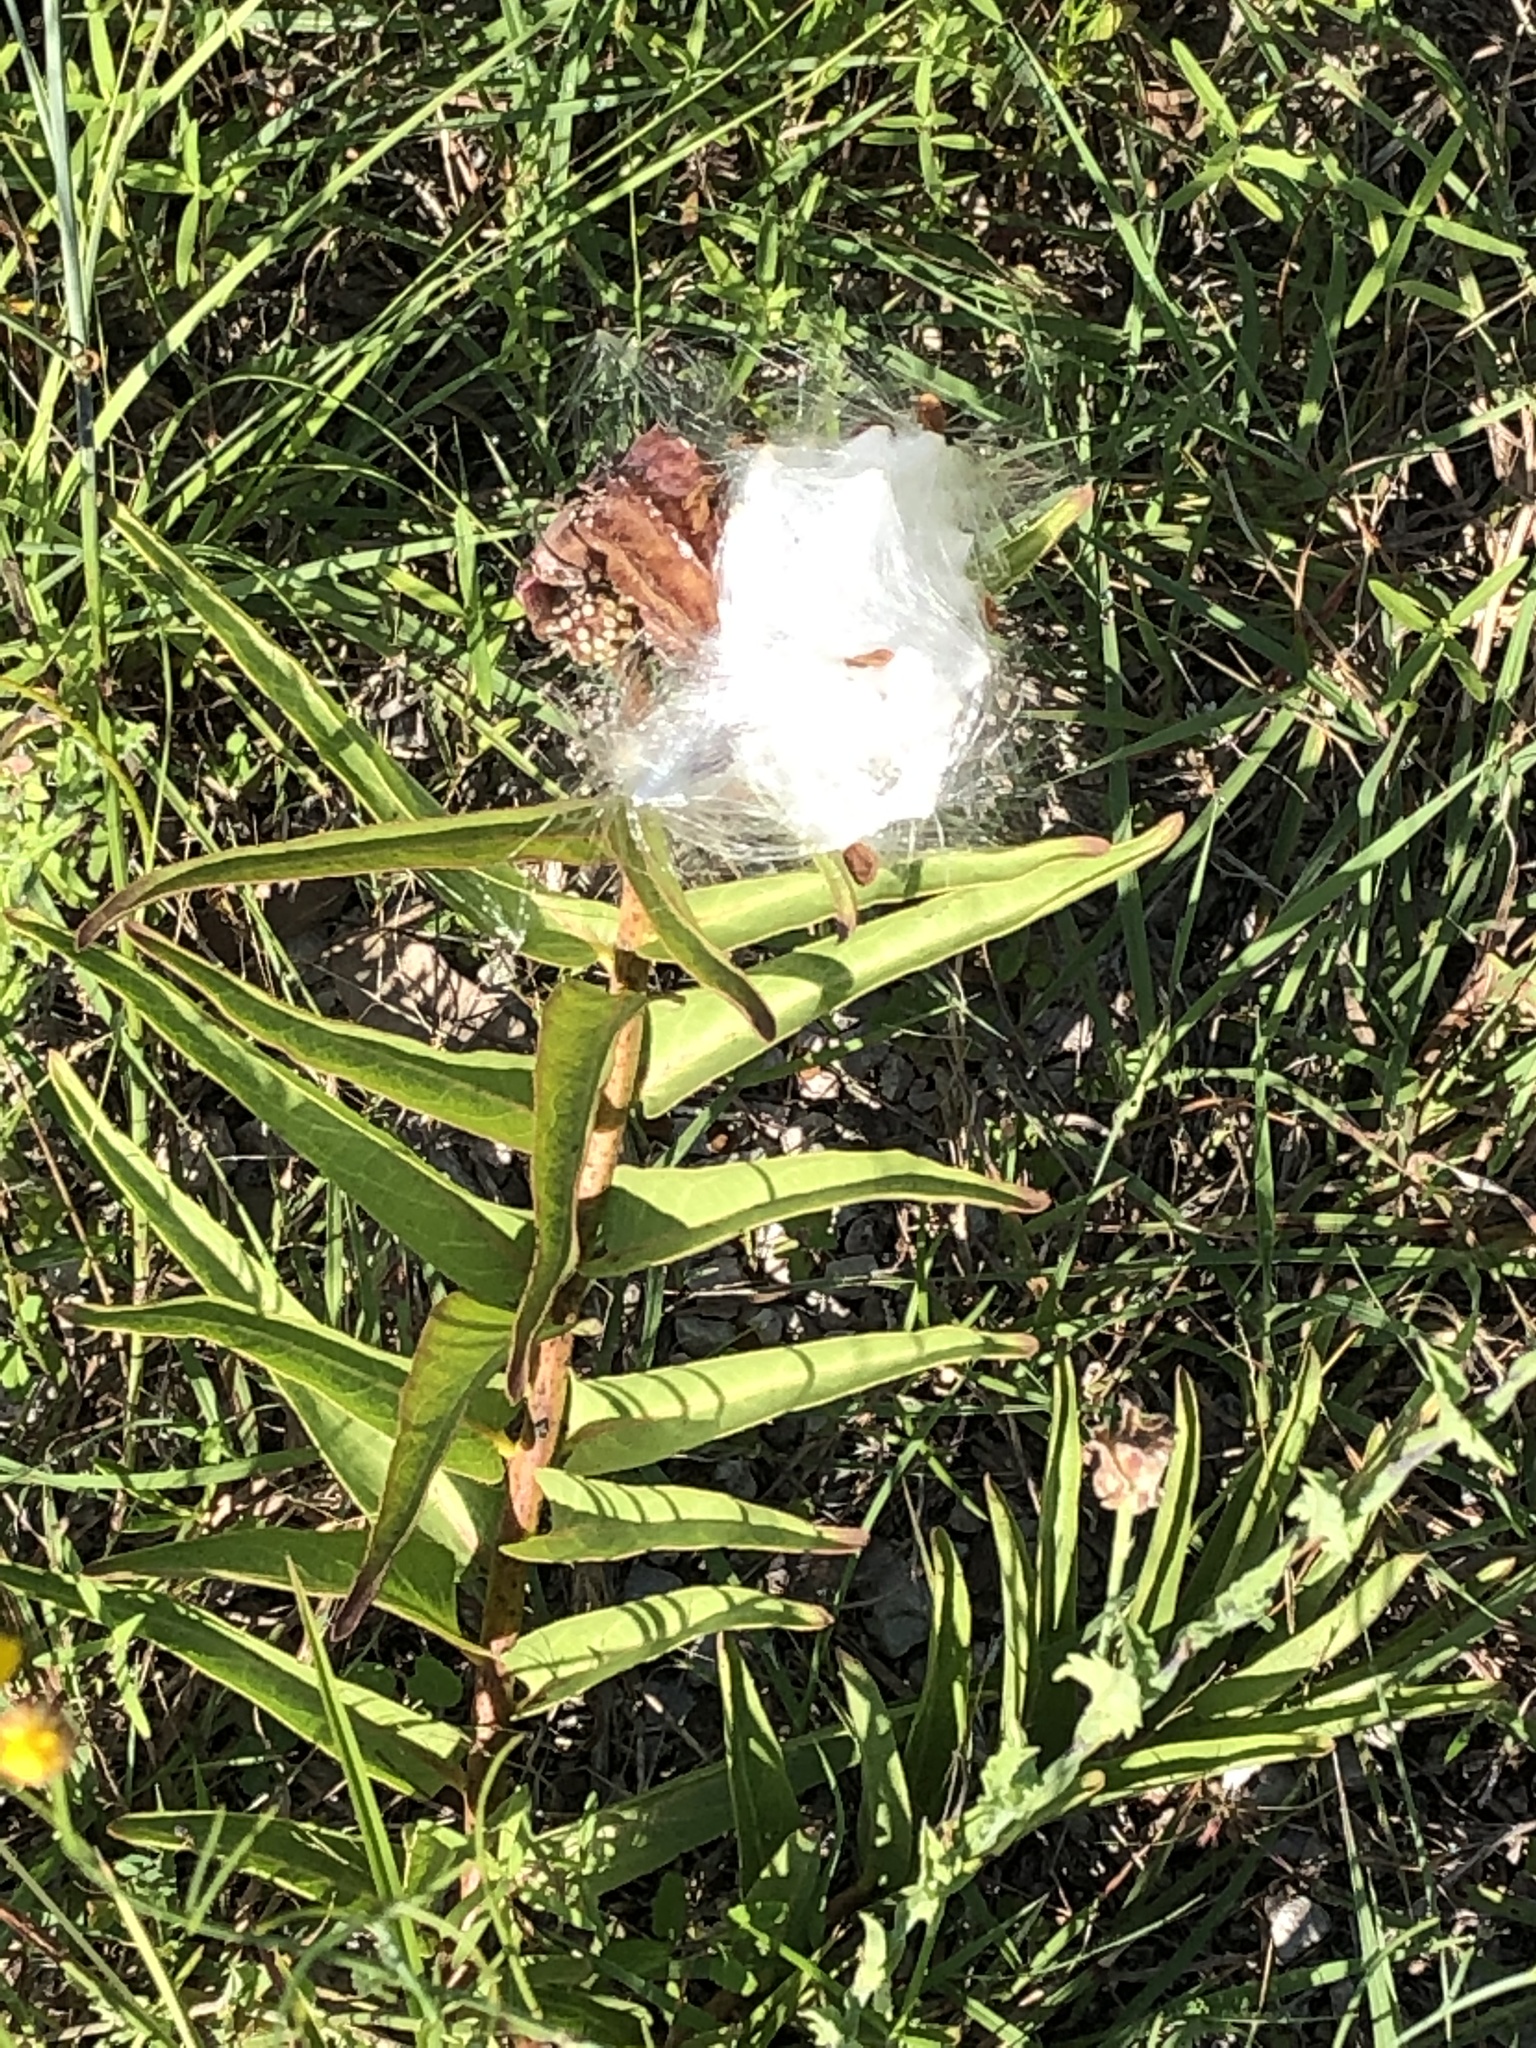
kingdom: Plantae
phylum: Tracheophyta
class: Magnoliopsida
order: Gentianales
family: Apocynaceae
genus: Asclepias
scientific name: Asclepias asperula
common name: Antelope horns
